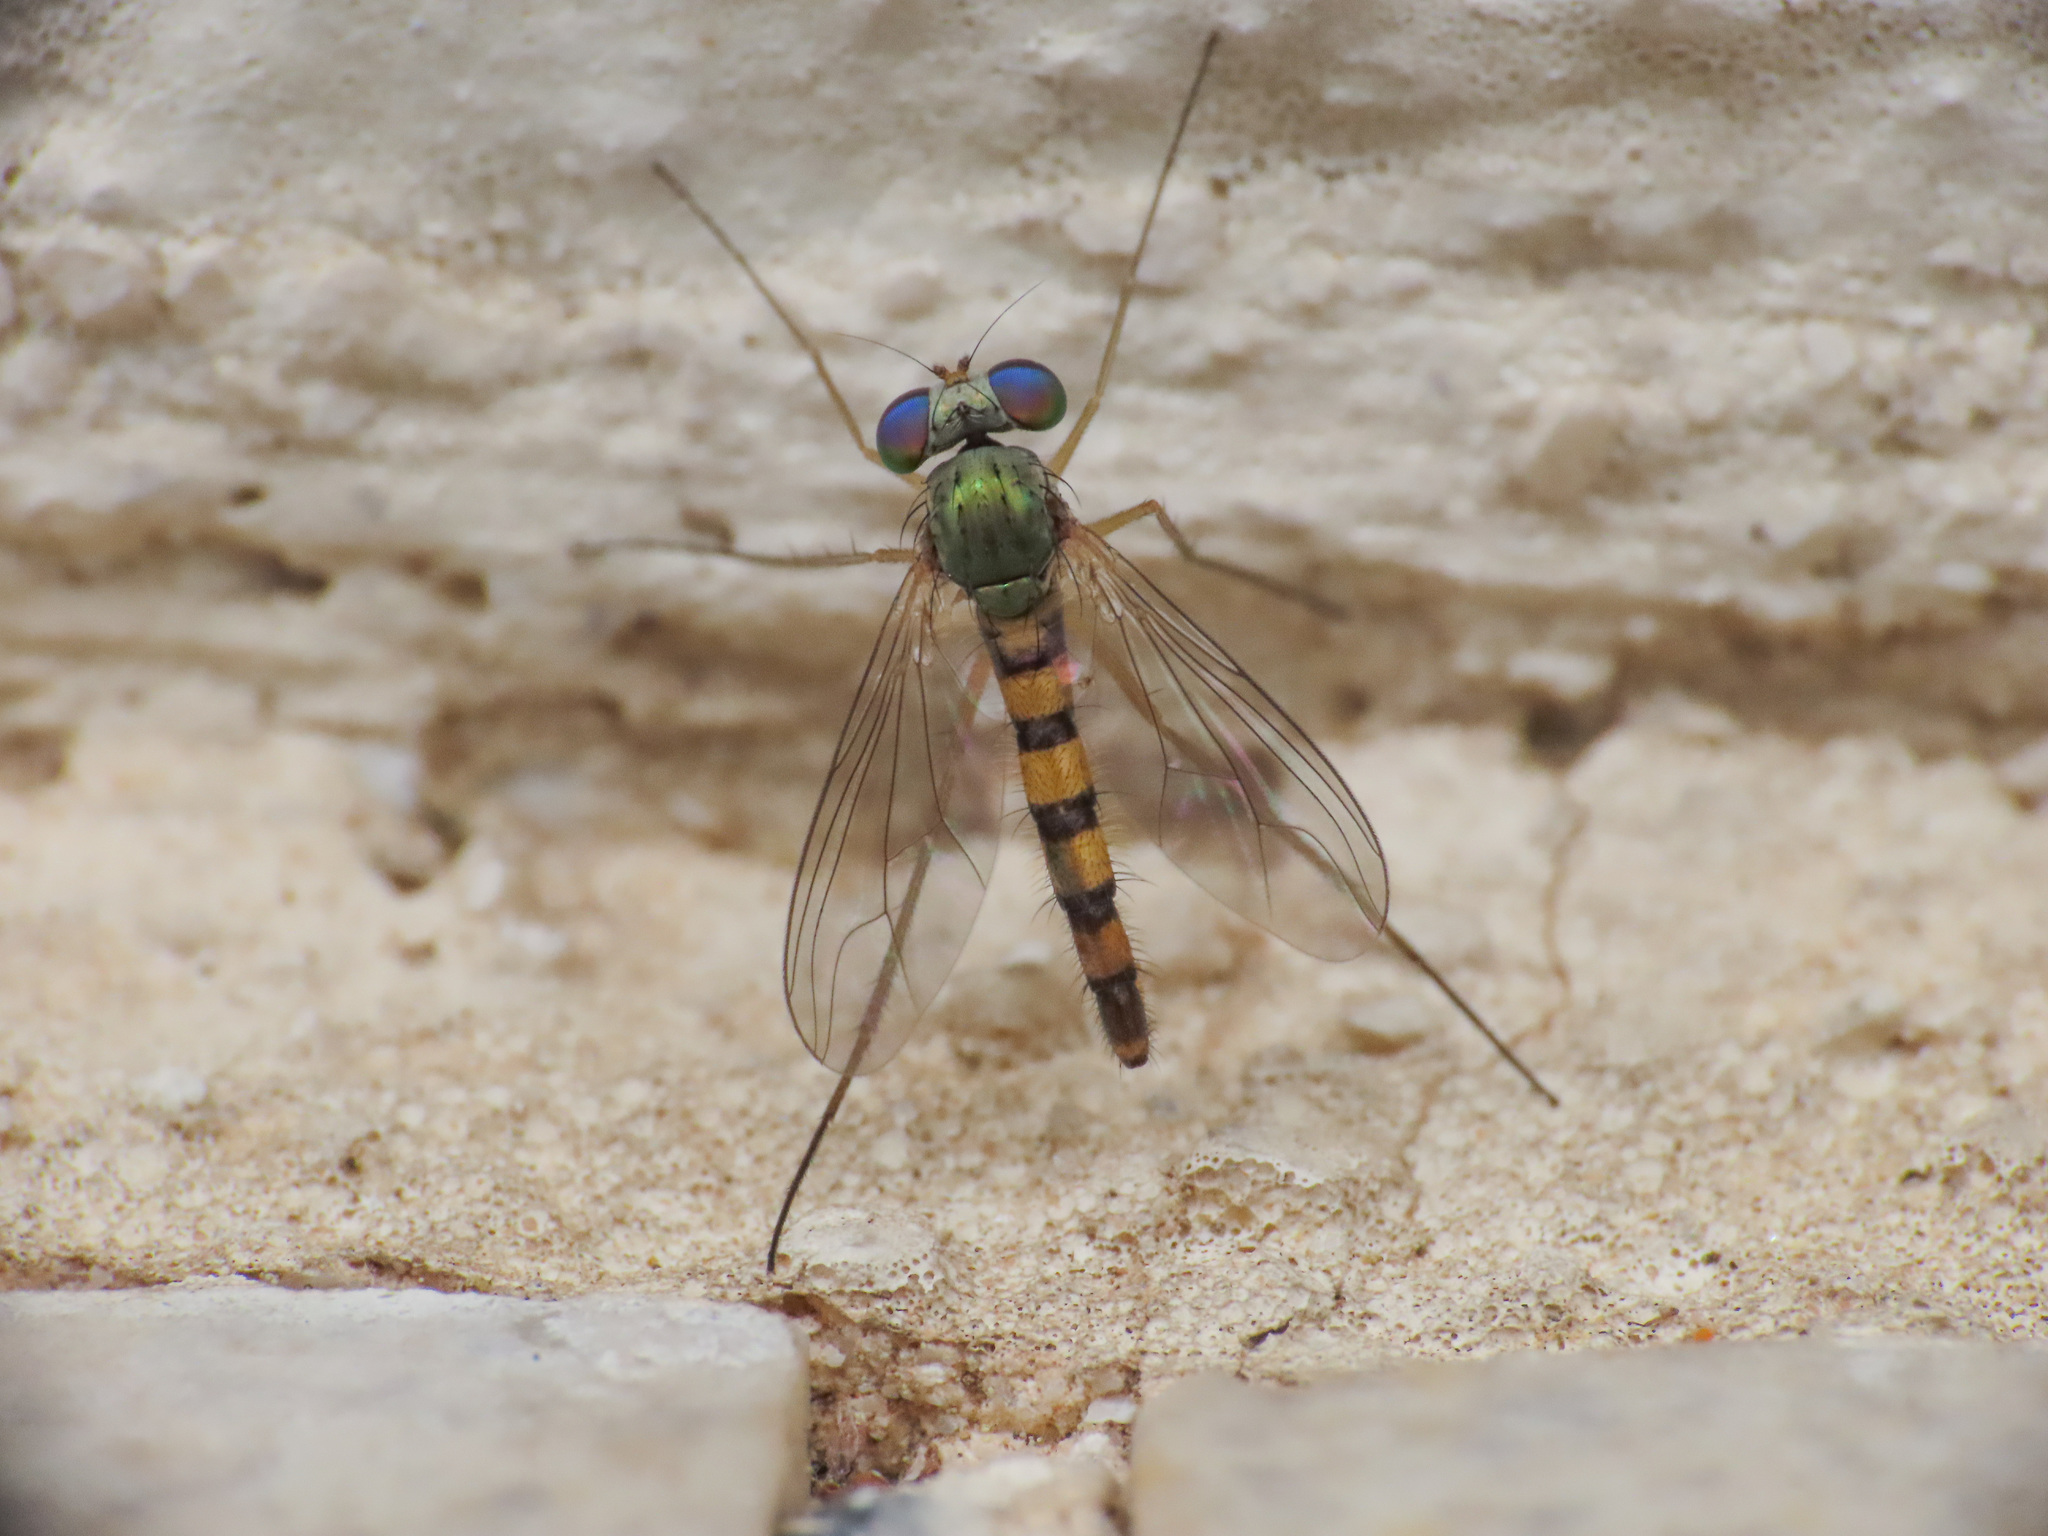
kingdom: Animalia
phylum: Arthropoda
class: Insecta
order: Diptera
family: Dolichopodidae
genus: Sciapus
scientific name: Sciapus heteropygus
